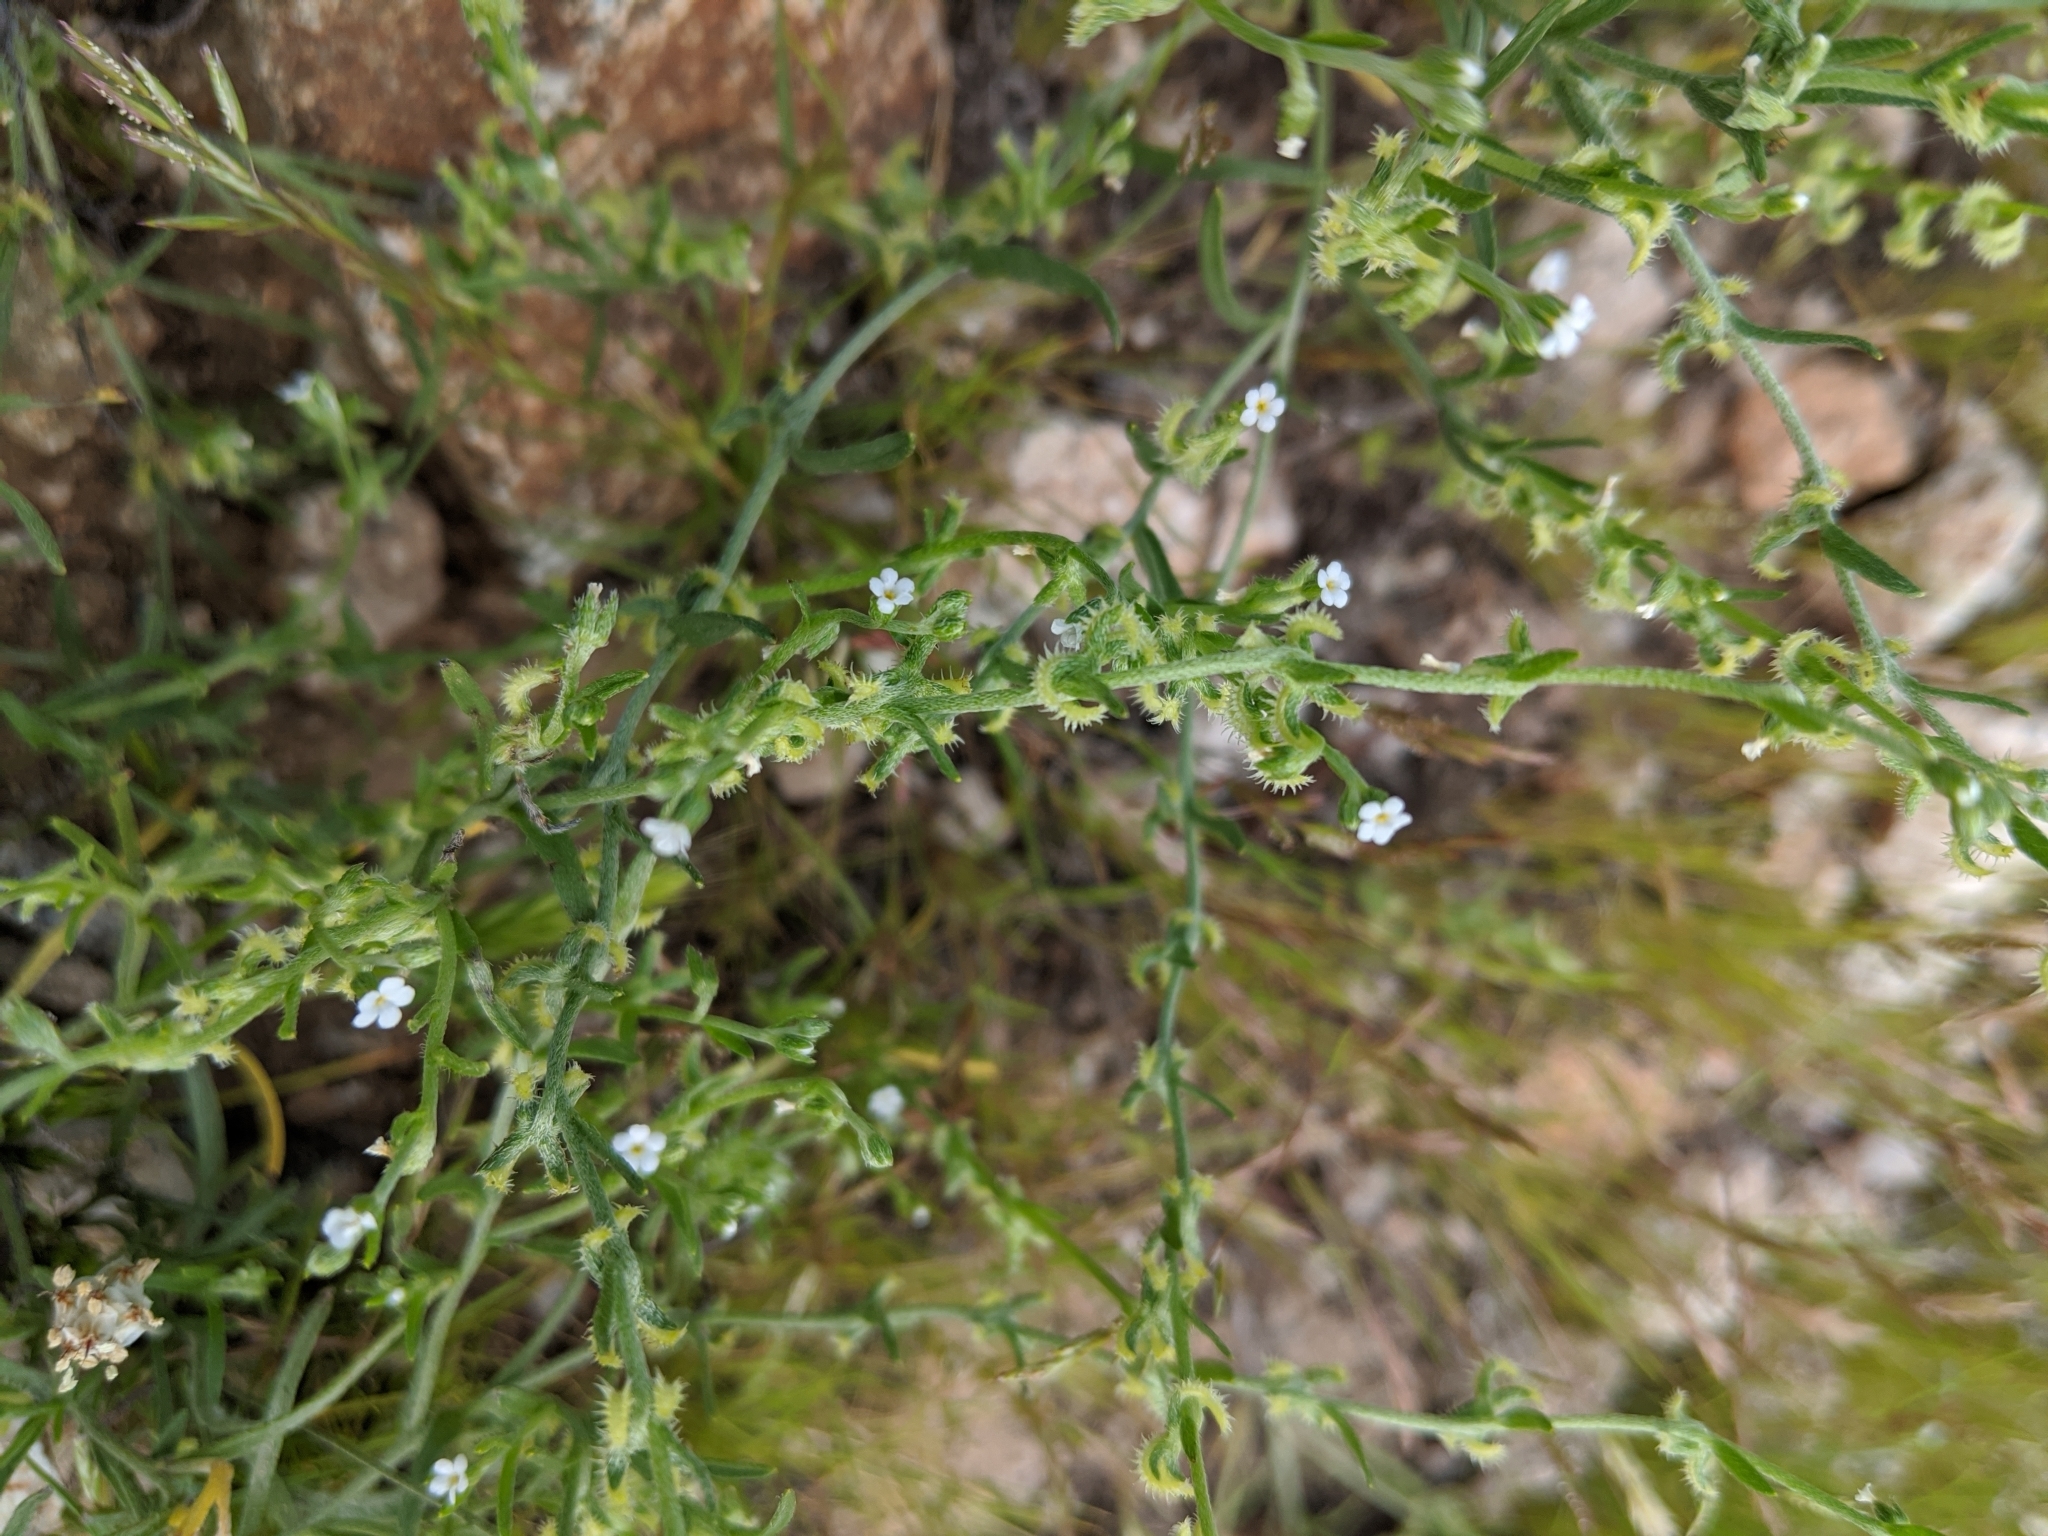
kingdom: Plantae
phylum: Tracheophyta
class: Magnoliopsida
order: Boraginales
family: Boraginaceae
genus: Pectocarya
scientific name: Pectocarya recurvata
